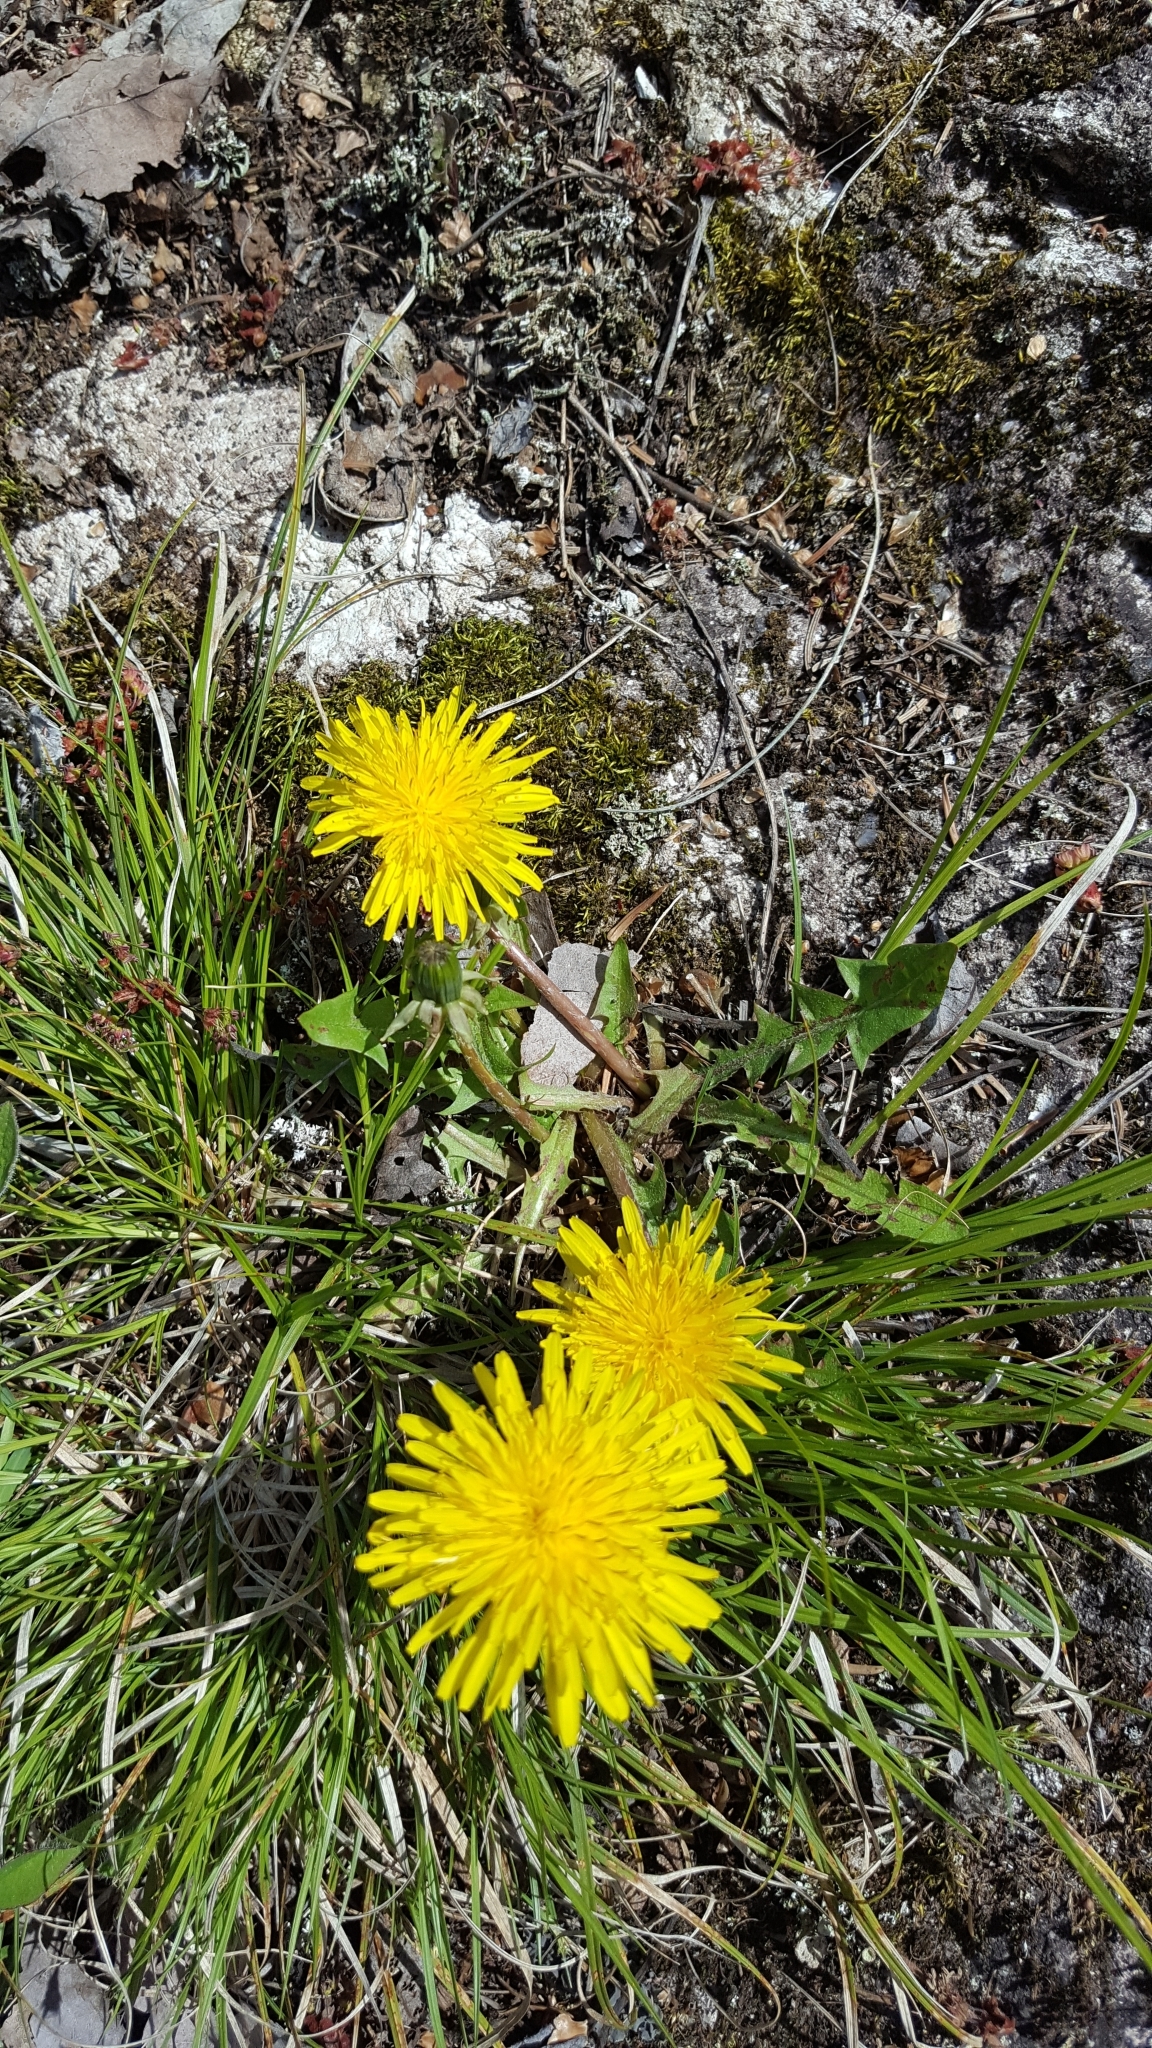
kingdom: Plantae
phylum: Tracheophyta
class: Magnoliopsida
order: Asterales
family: Asteraceae
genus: Taraxacum
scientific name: Taraxacum officinale
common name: Common dandelion
